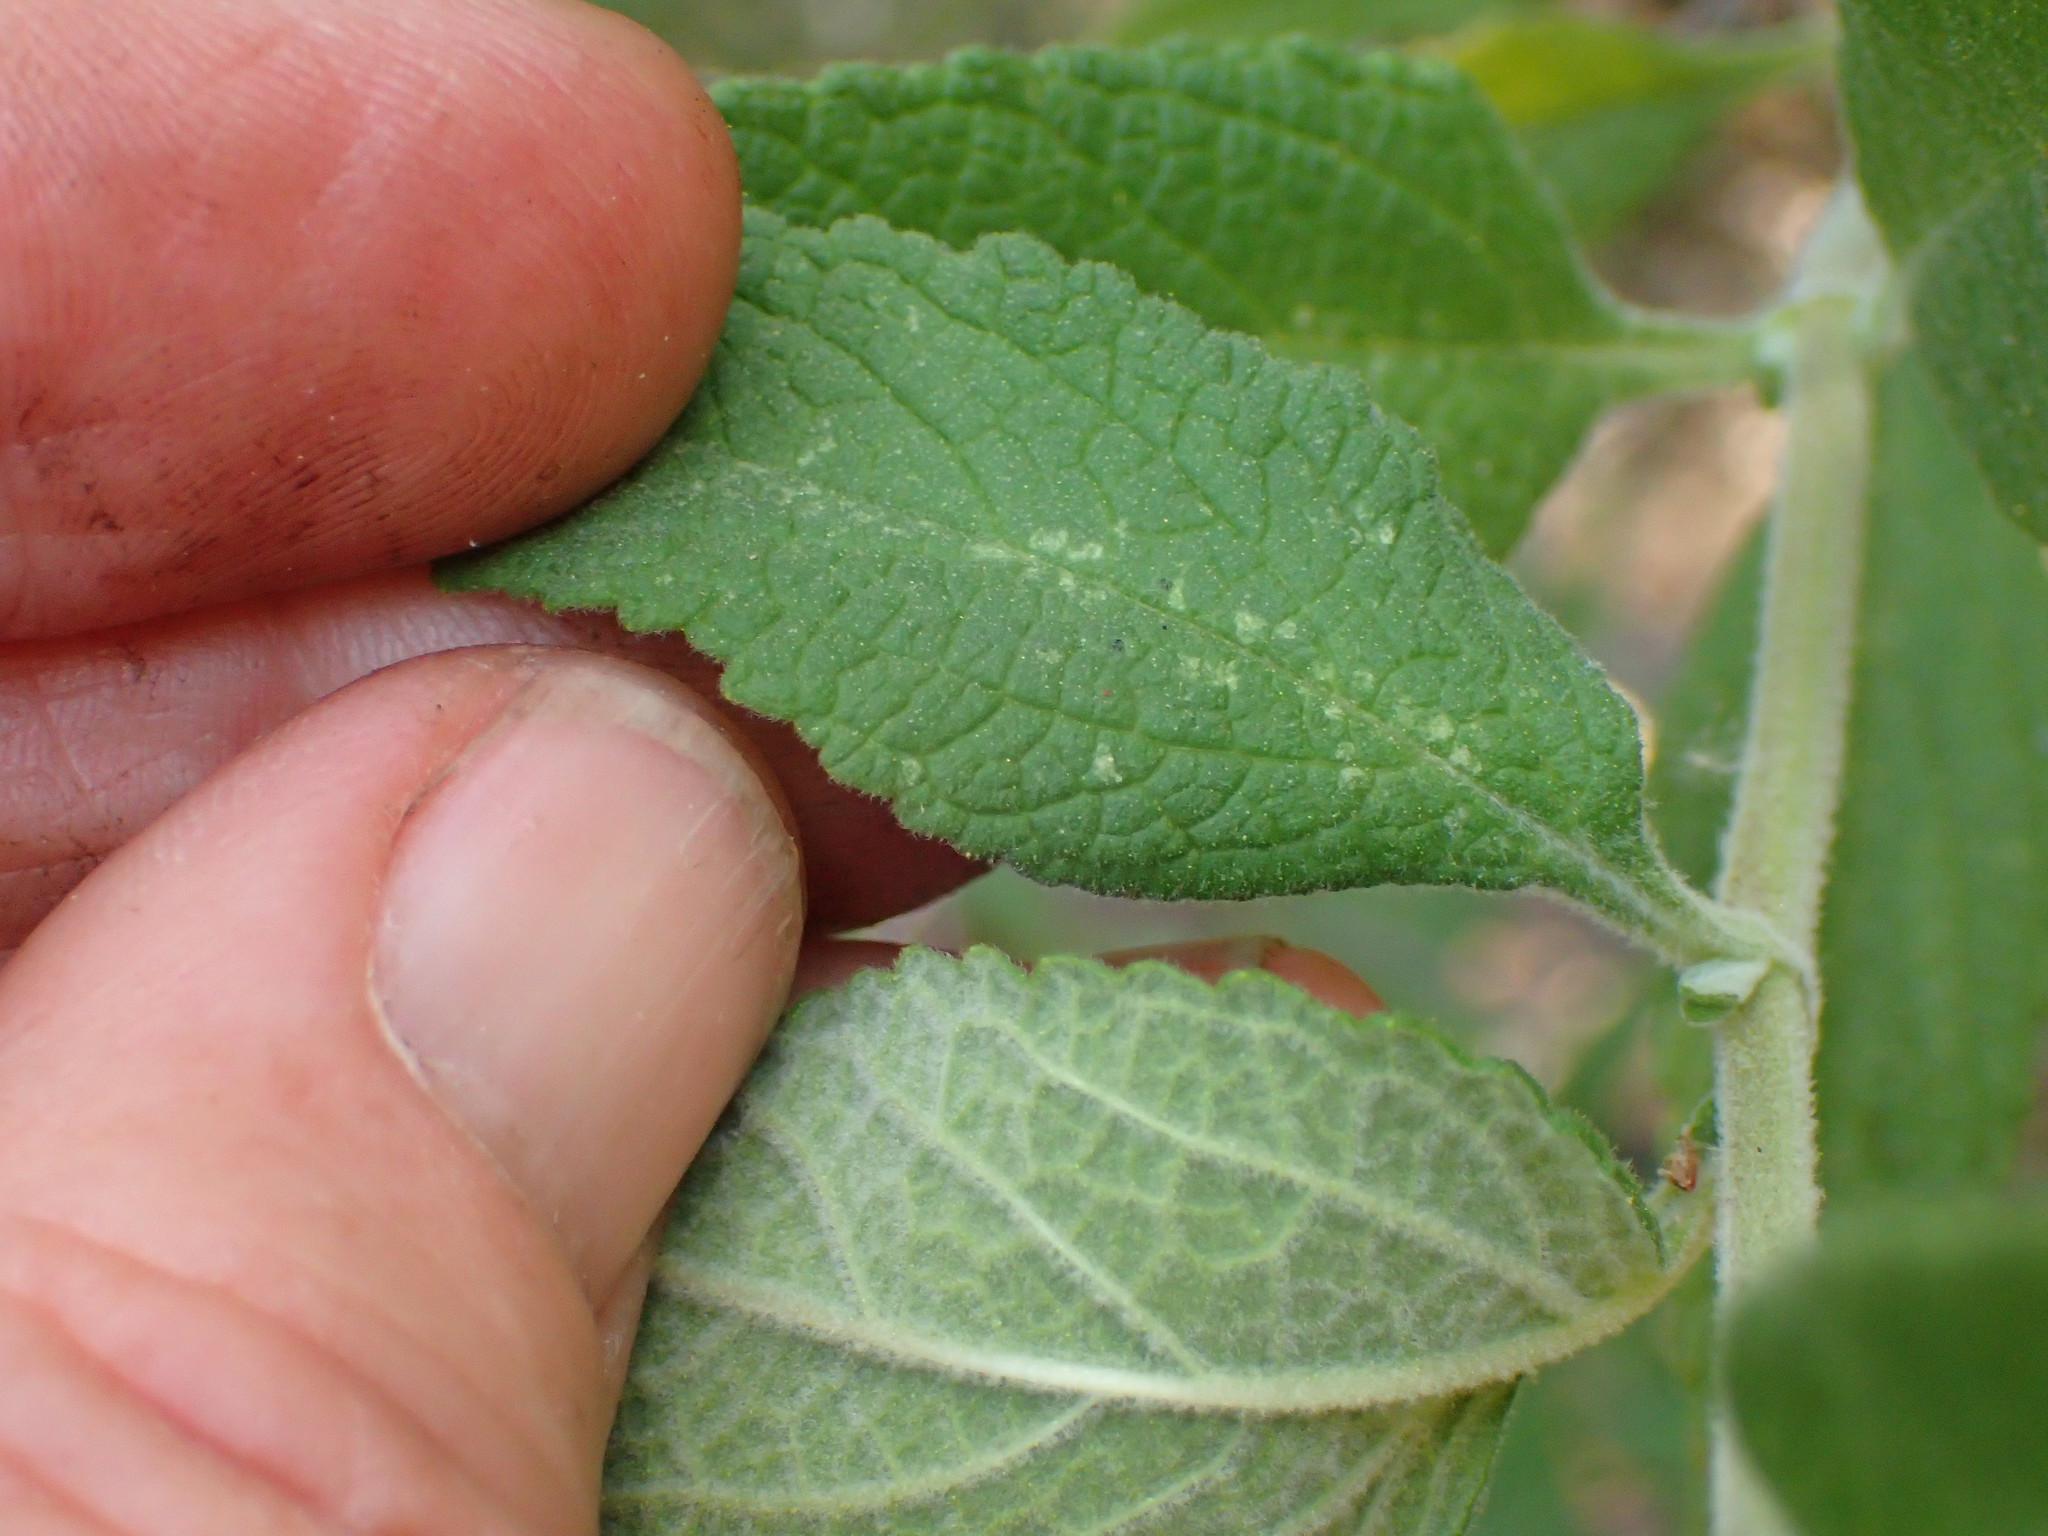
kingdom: Plantae
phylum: Tracheophyta
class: Magnoliopsida
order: Lamiales
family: Lamiaceae
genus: Lepechinia
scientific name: Lepechinia calycina
